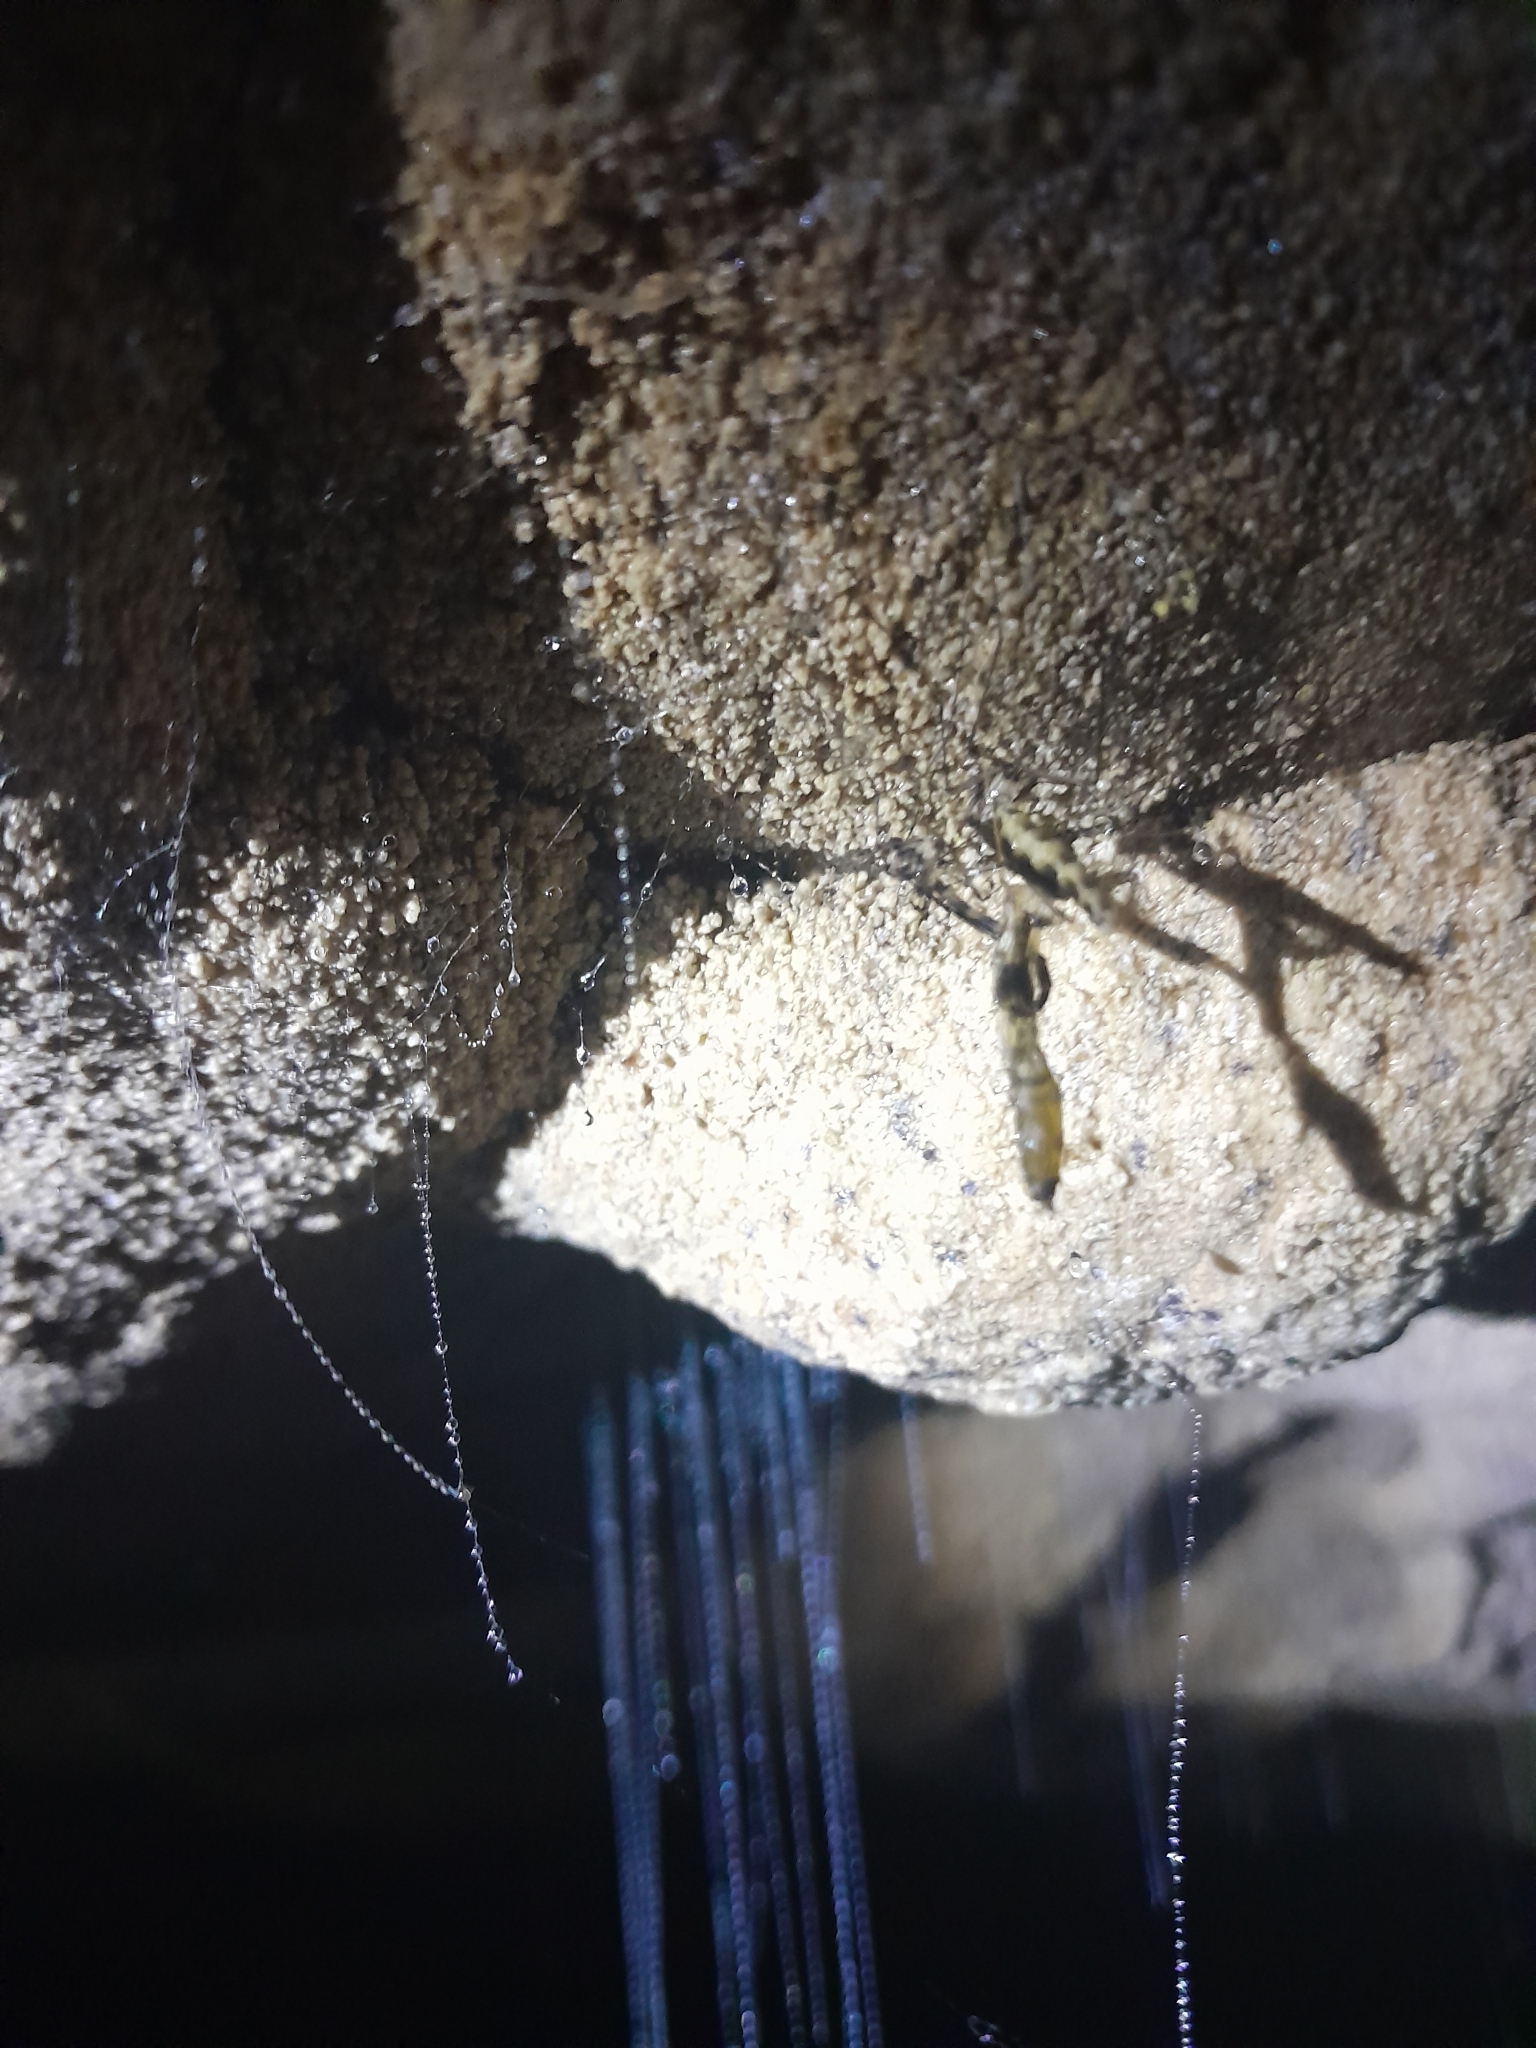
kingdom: Animalia
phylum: Arthropoda
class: Insecta
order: Diptera
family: Keroplatidae
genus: Arachnocampa
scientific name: Arachnocampa luminosa
